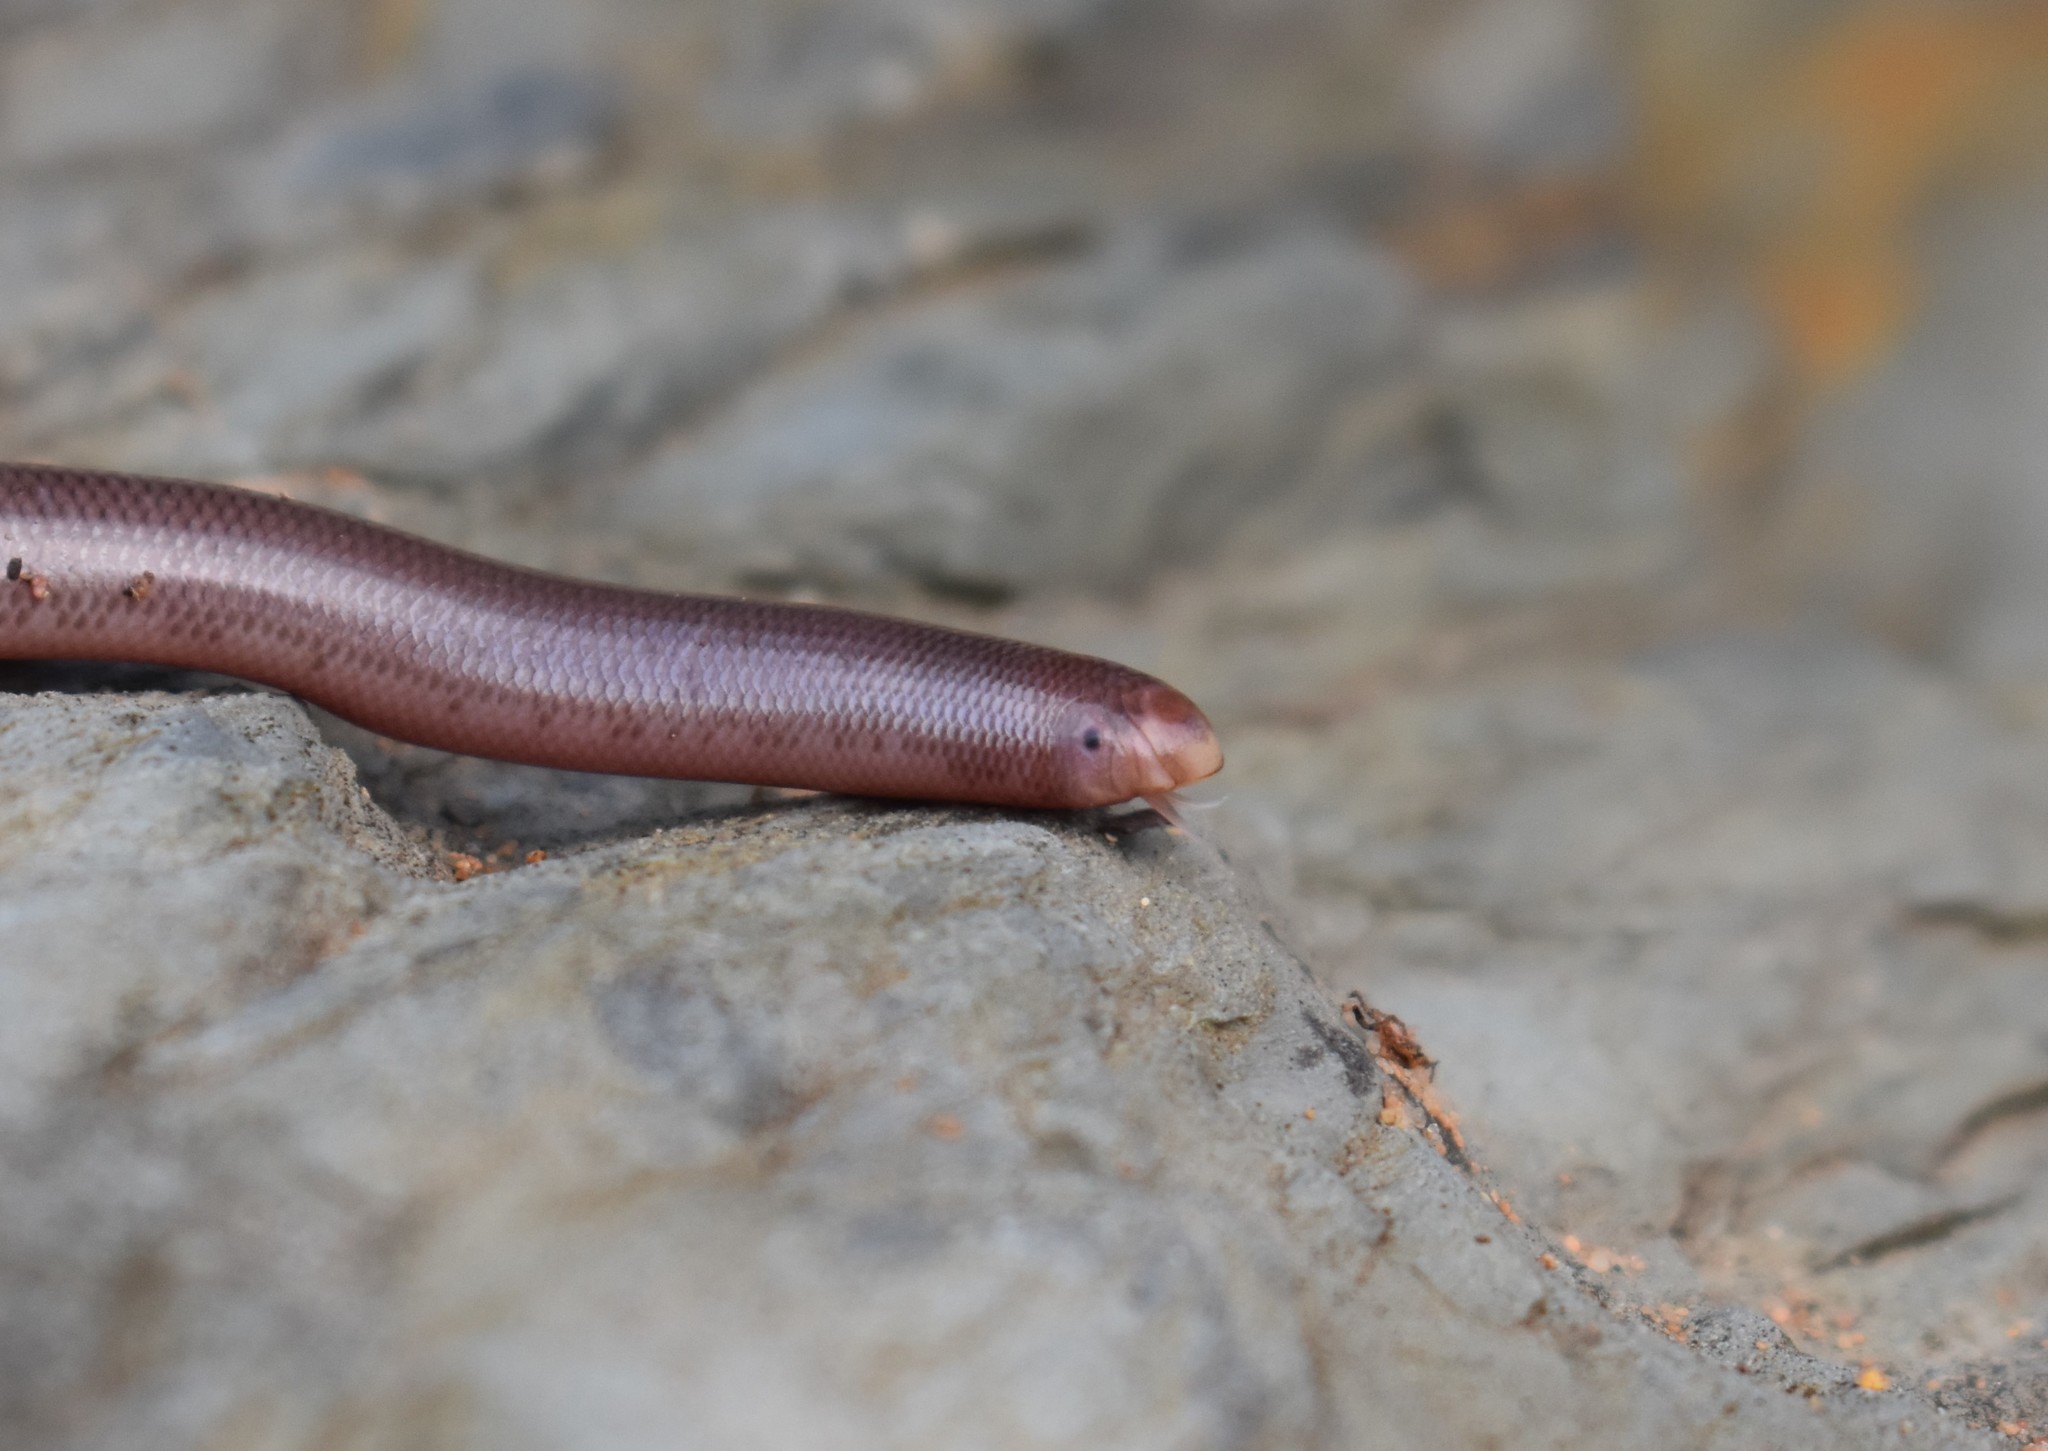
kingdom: Animalia
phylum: Chordata
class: Squamata
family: Typhlopidae
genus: Rhinotyphlops
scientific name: Rhinotyphlops lalandei
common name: Delalande's beaked blind snake
